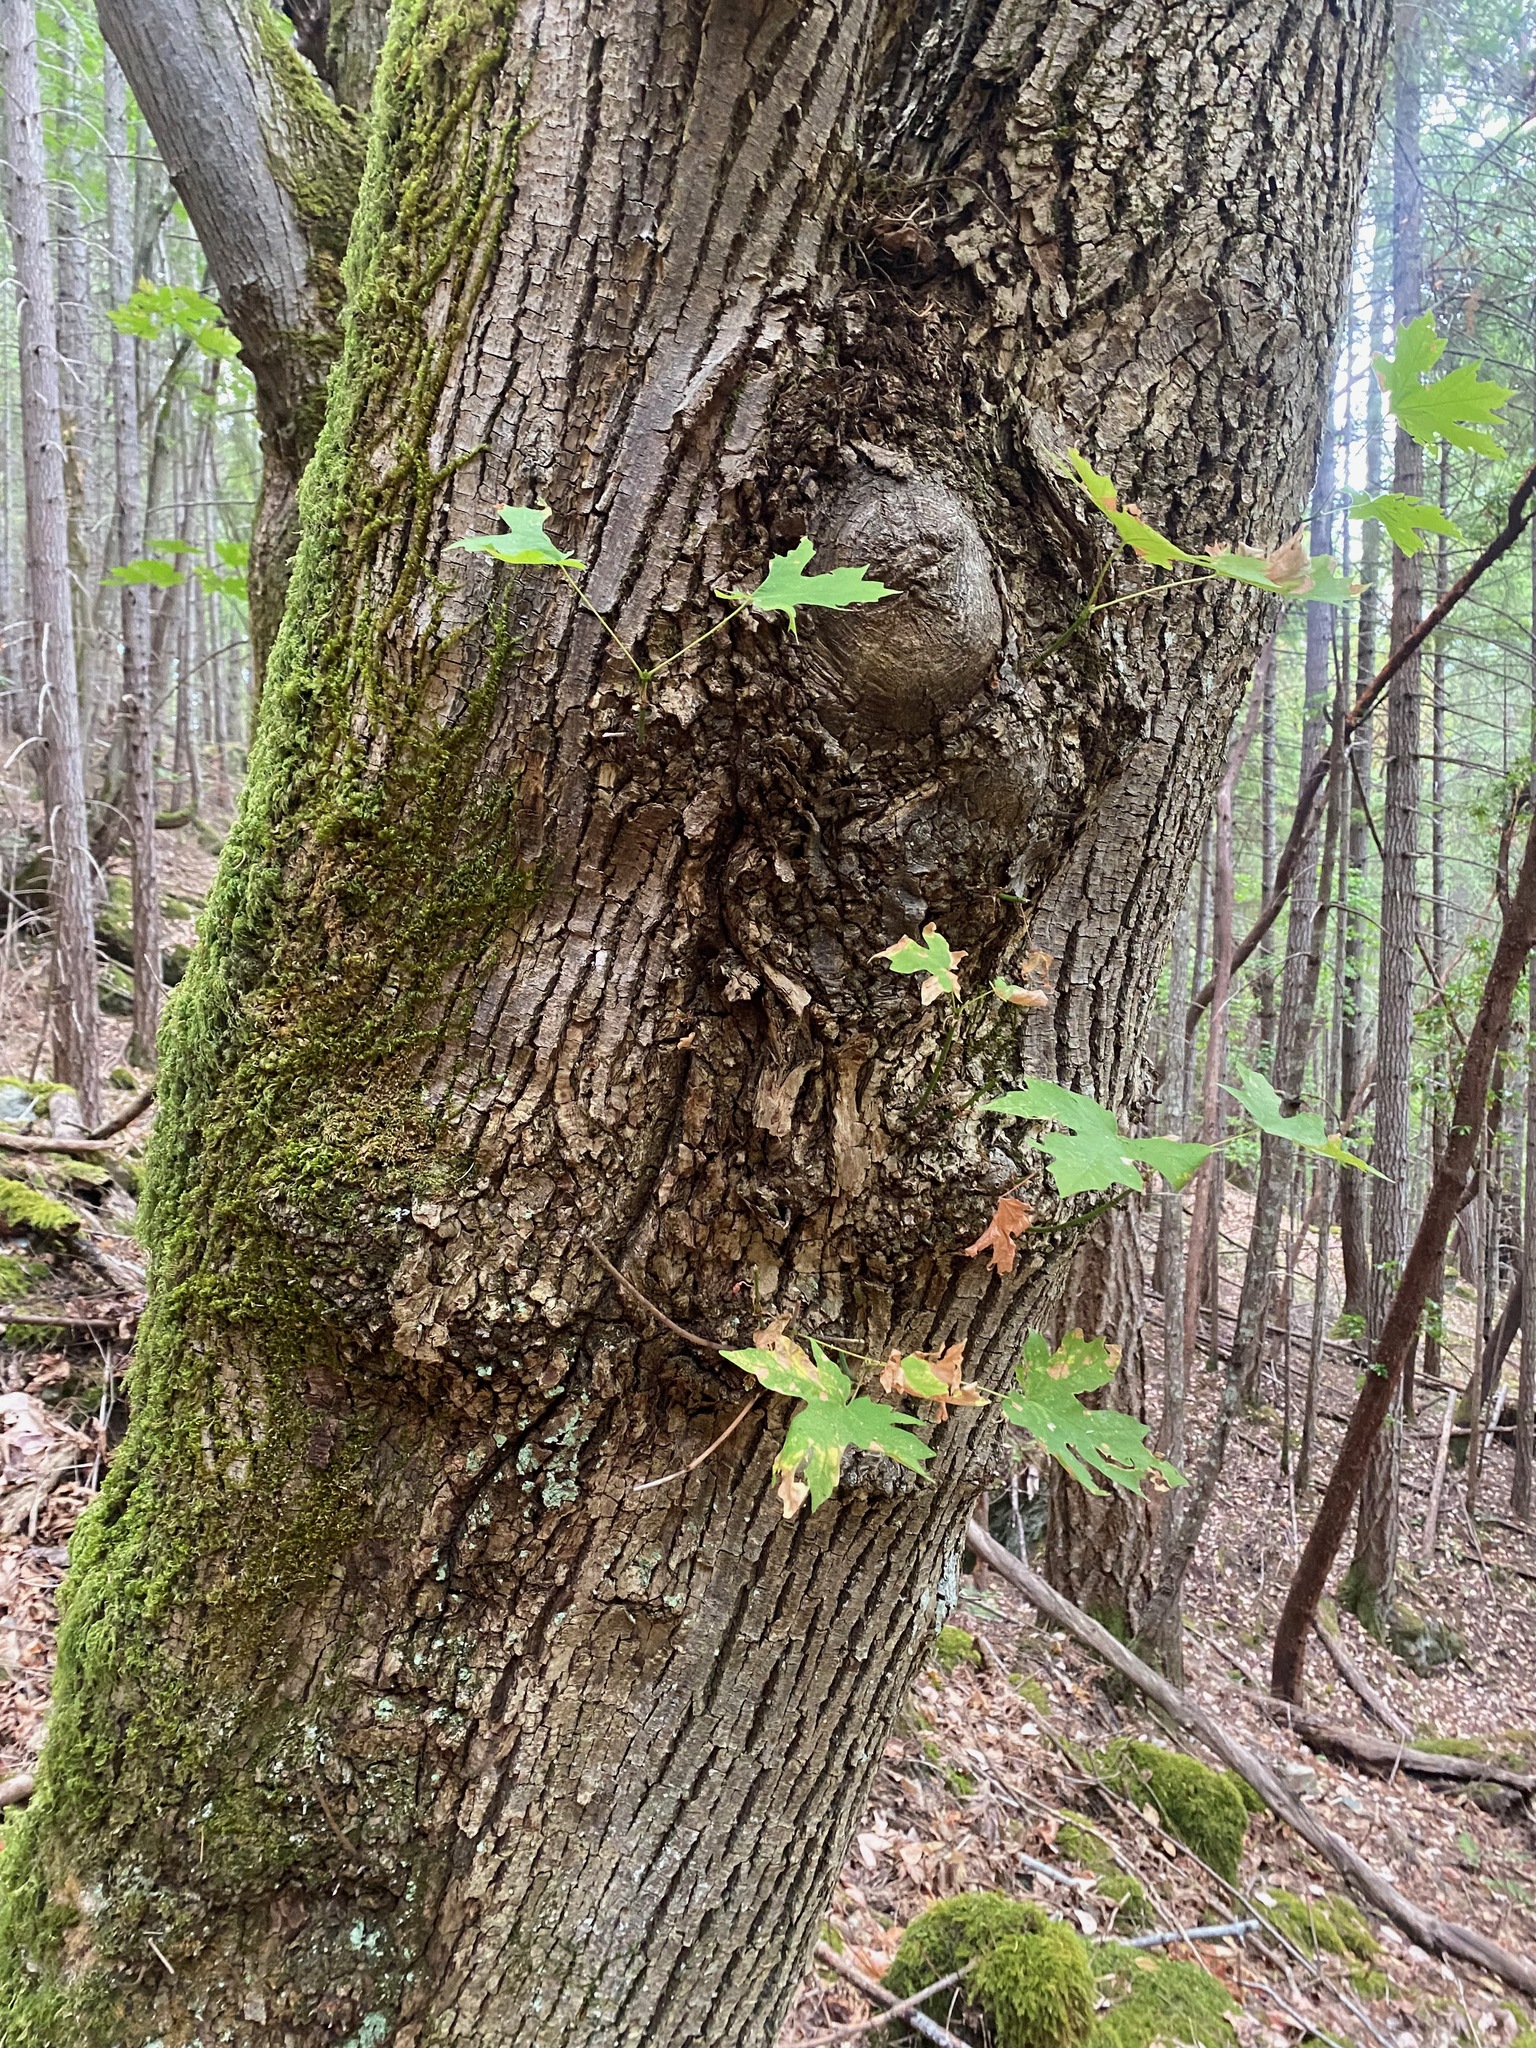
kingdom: Plantae
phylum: Tracheophyta
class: Magnoliopsida
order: Sapindales
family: Sapindaceae
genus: Acer
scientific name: Acer macrophyllum
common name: Oregon maple
